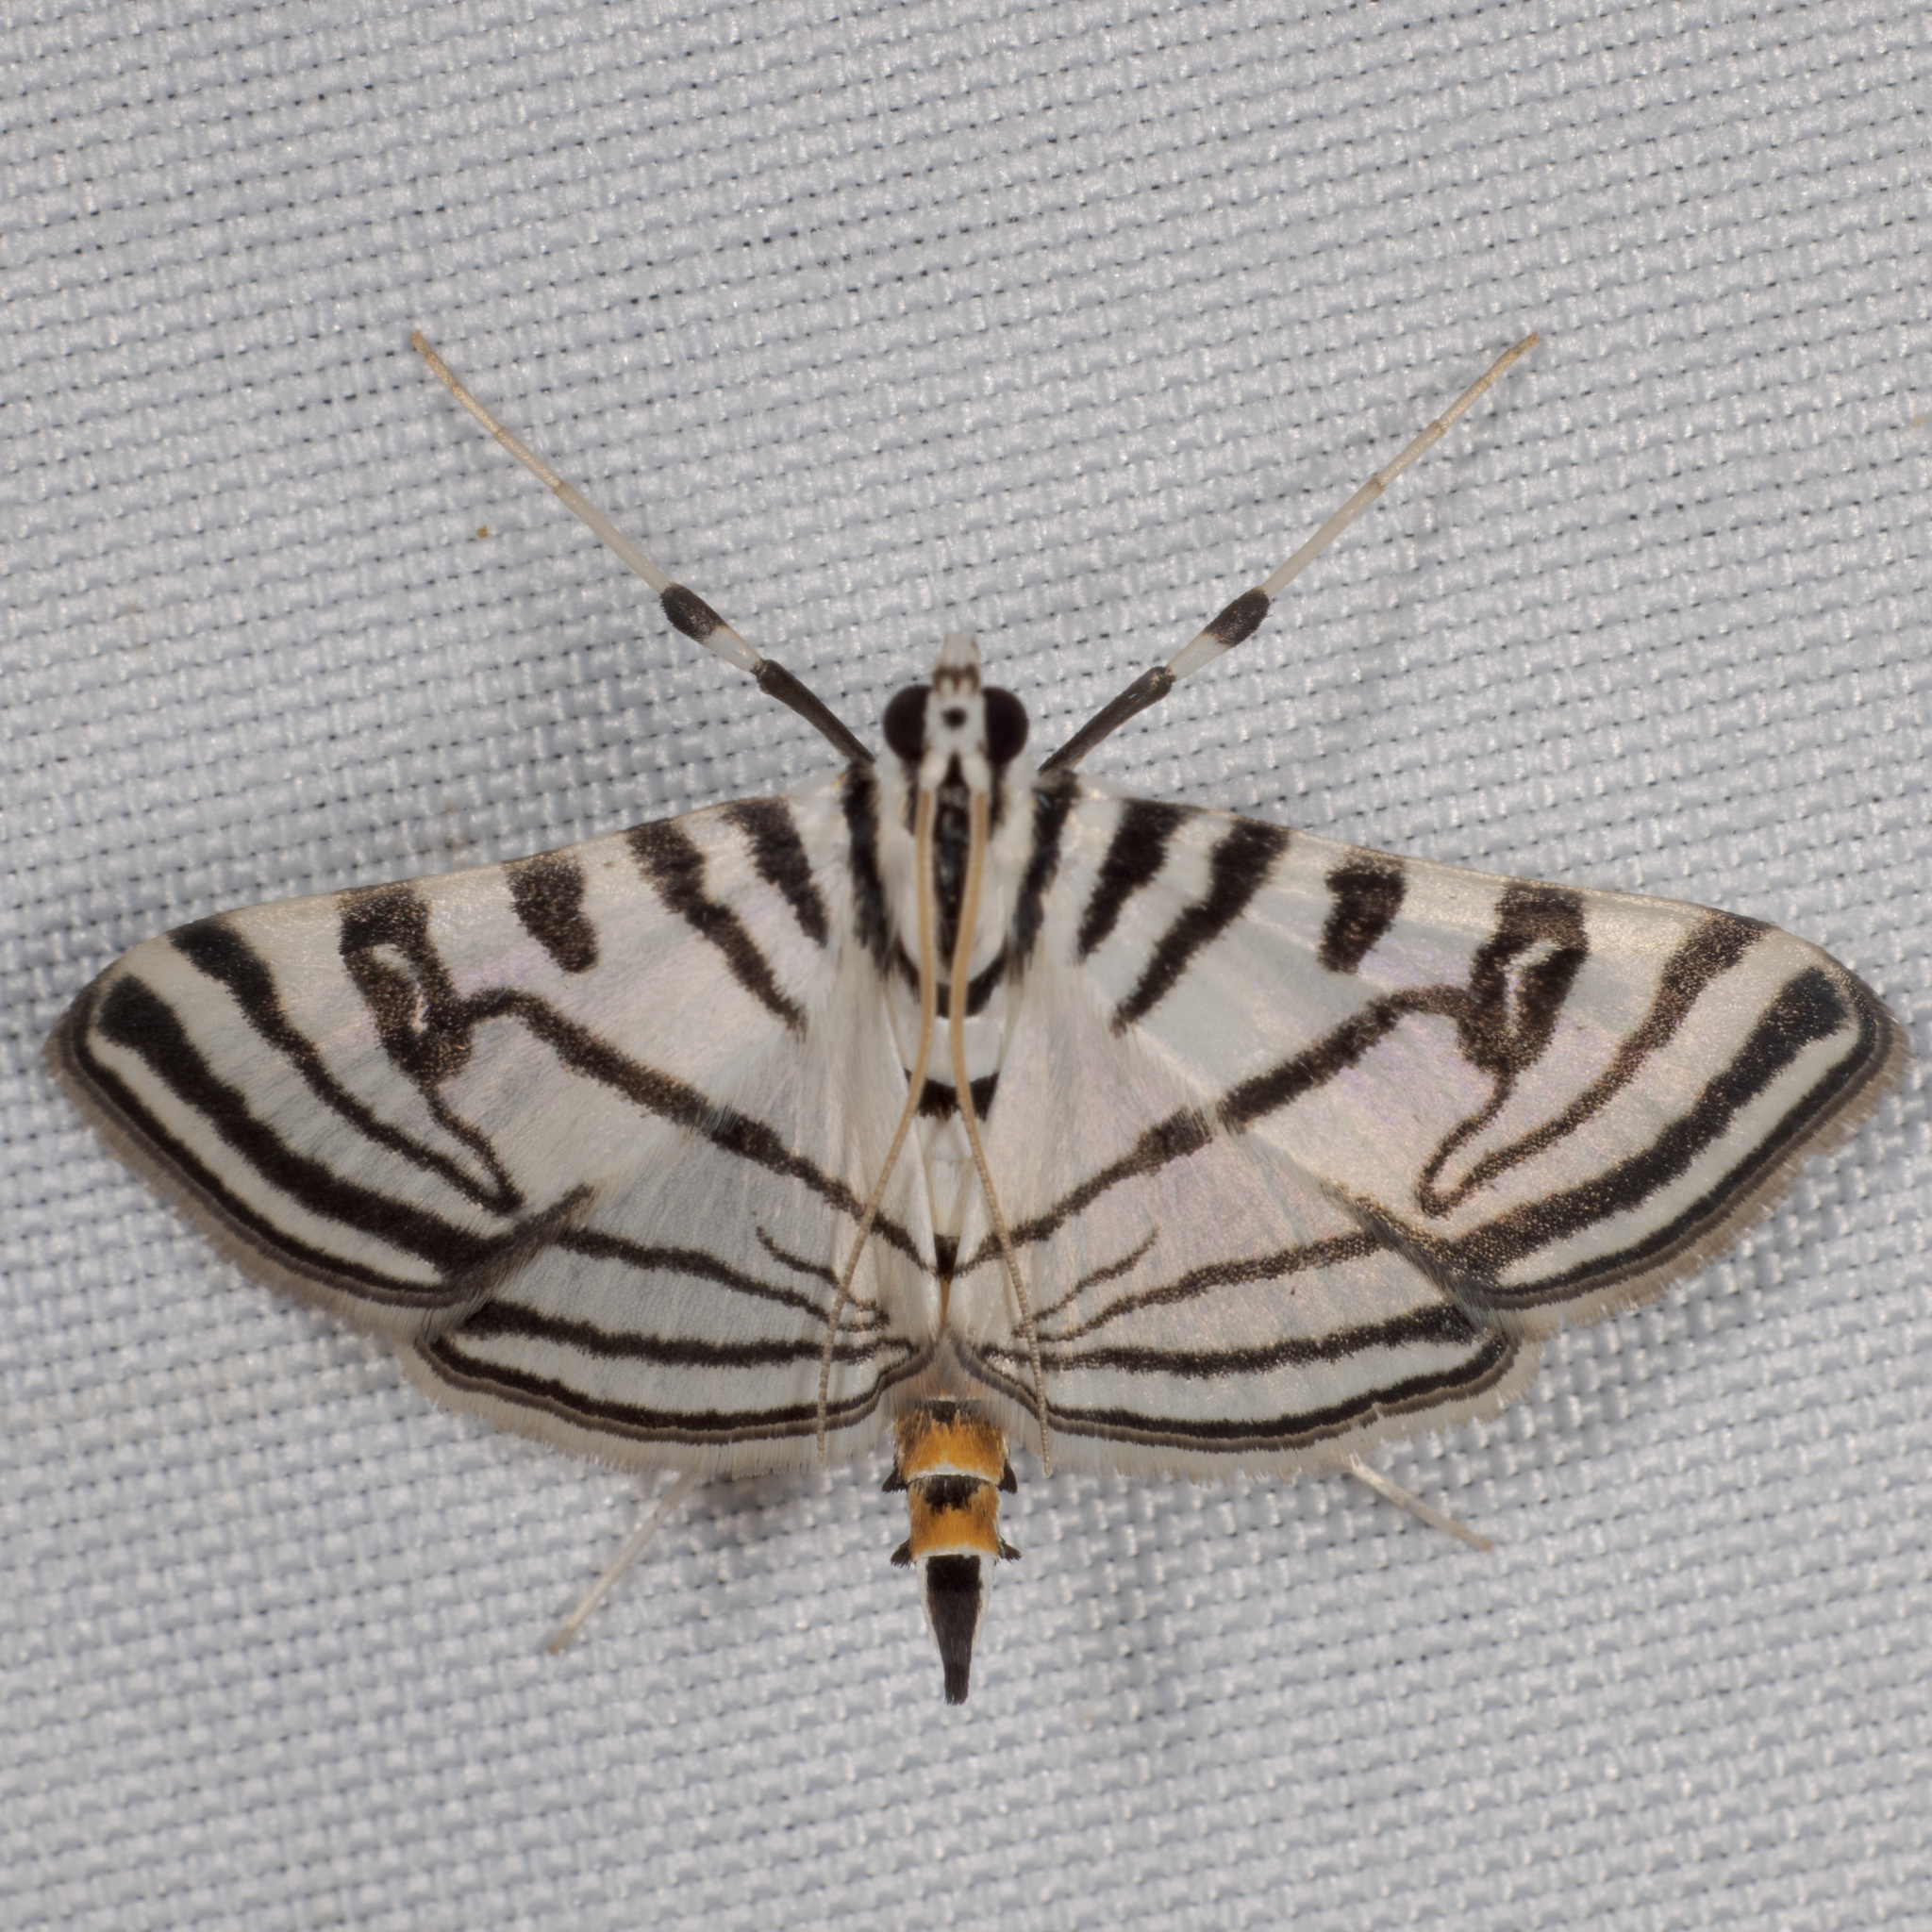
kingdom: Animalia
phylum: Arthropoda
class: Insecta
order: Lepidoptera
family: Crambidae
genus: Conchylodes
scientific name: Conchylodes ovulalis
